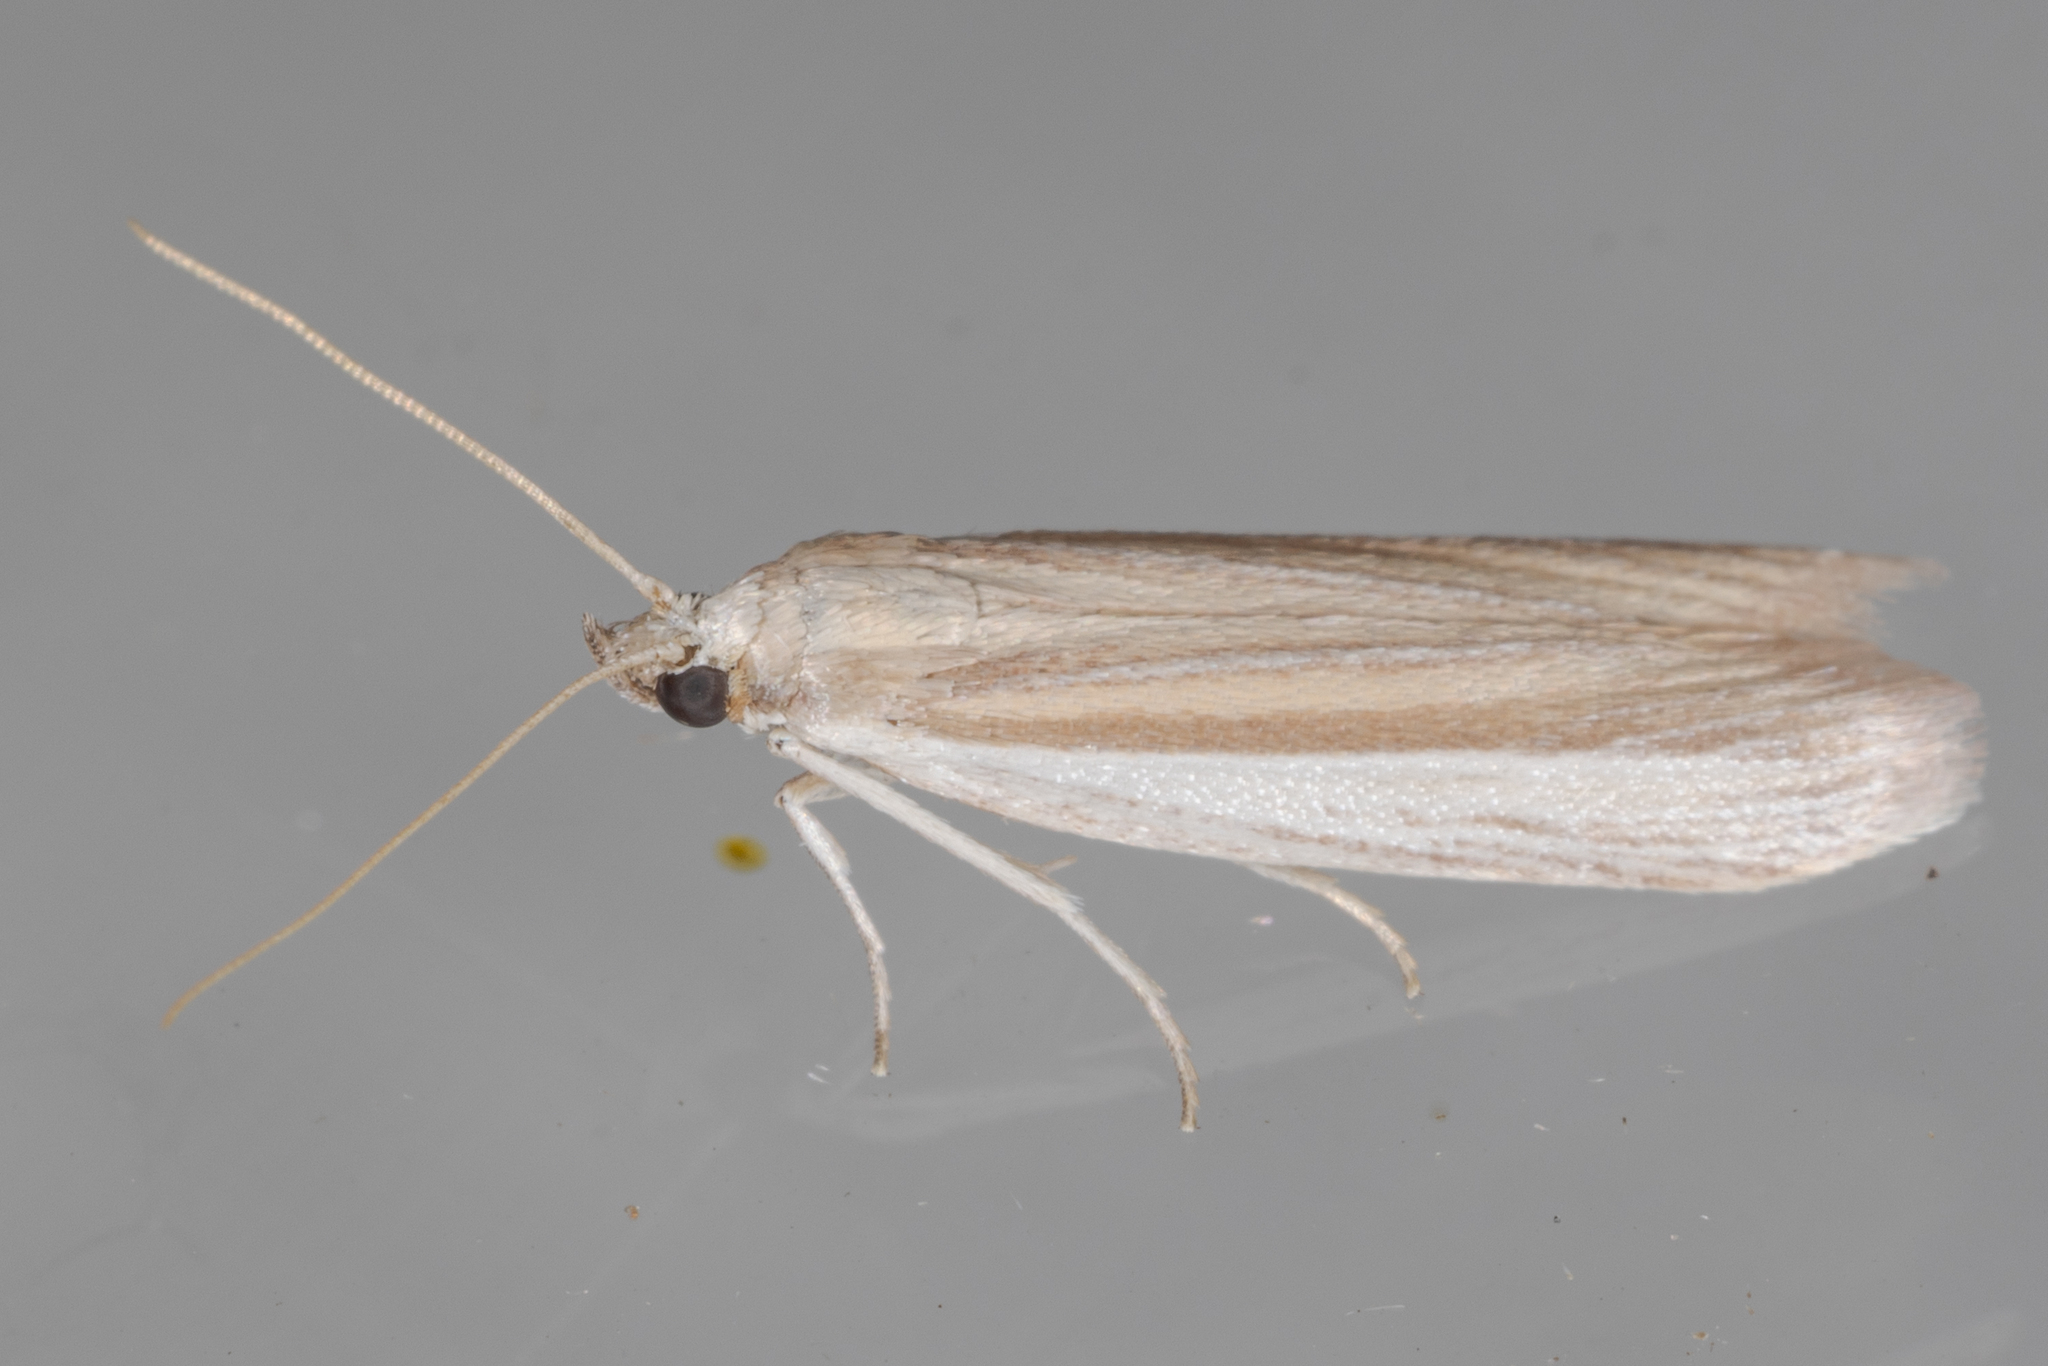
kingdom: Animalia
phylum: Arthropoda
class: Insecta
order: Lepidoptera
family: Pyralidae
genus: Anderida
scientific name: Anderida peorinella
